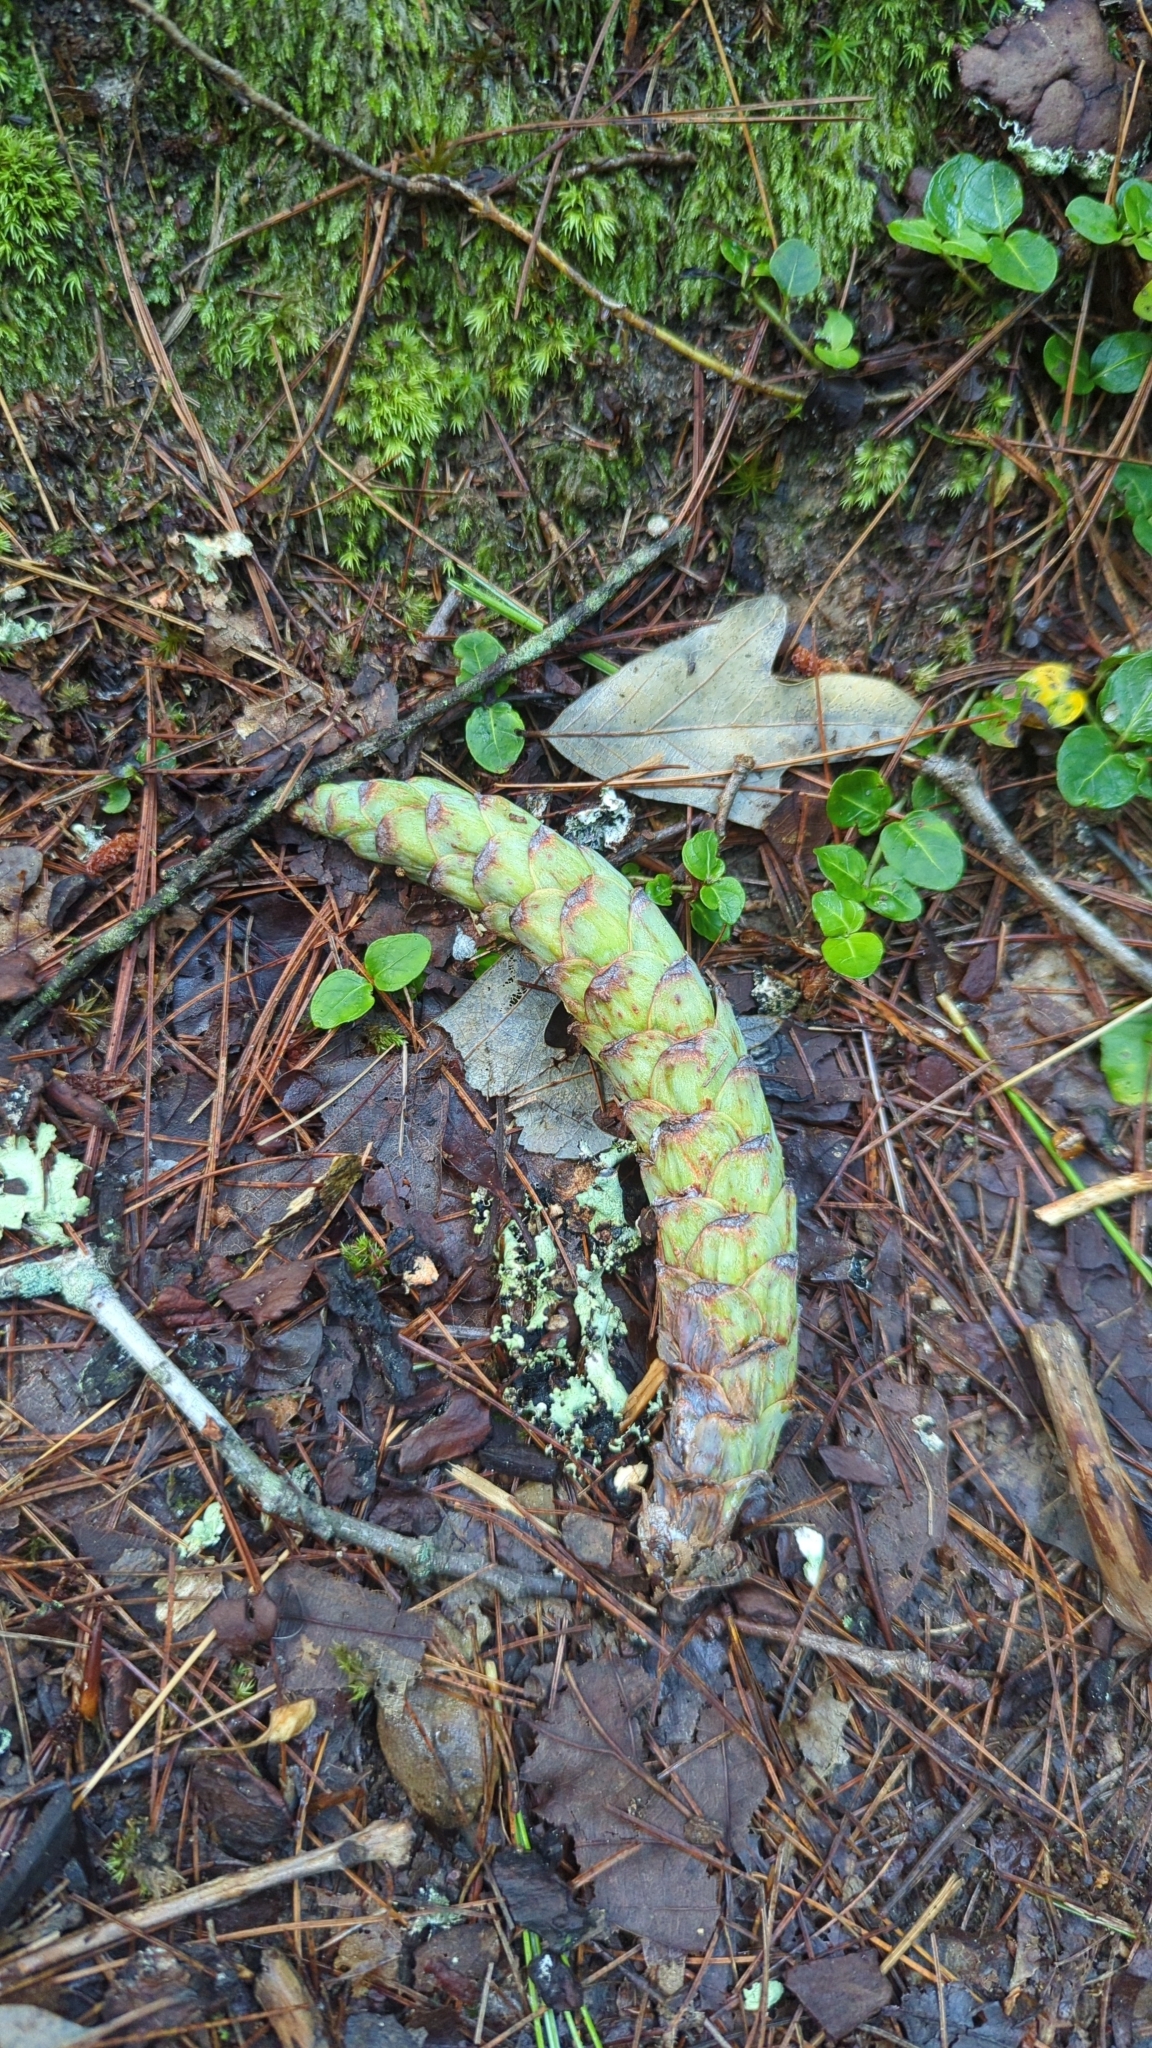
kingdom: Plantae
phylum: Tracheophyta
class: Pinopsida
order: Pinales
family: Pinaceae
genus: Pinus
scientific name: Pinus strobus
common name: Weymouth pine
